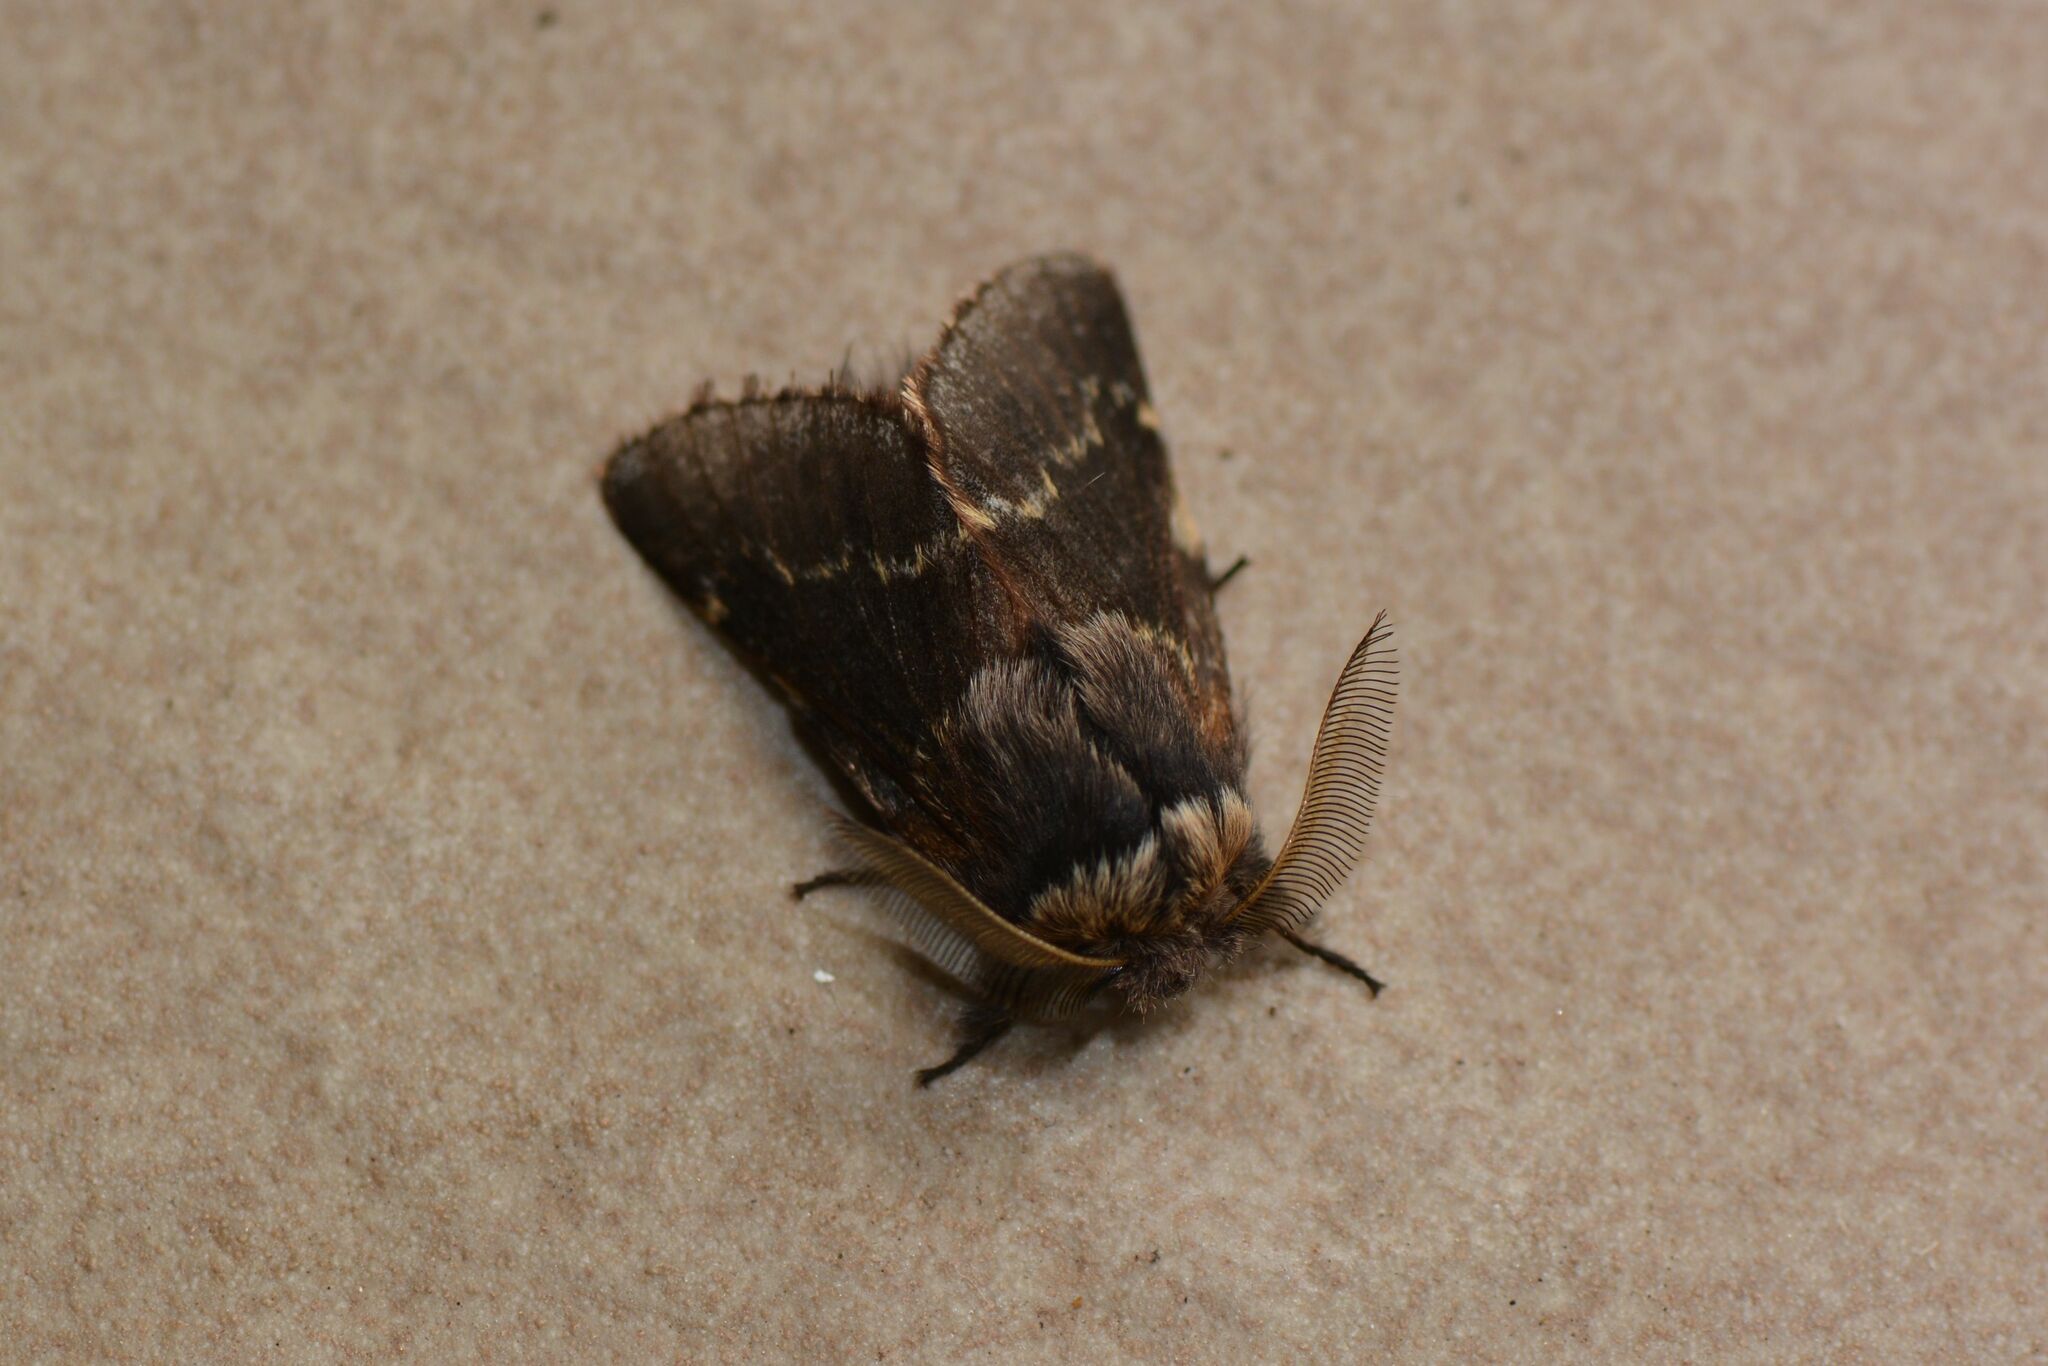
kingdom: Animalia
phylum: Arthropoda
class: Insecta
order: Lepidoptera
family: Lasiocampidae
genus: Poecilocampa
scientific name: Poecilocampa populi
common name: December moth
